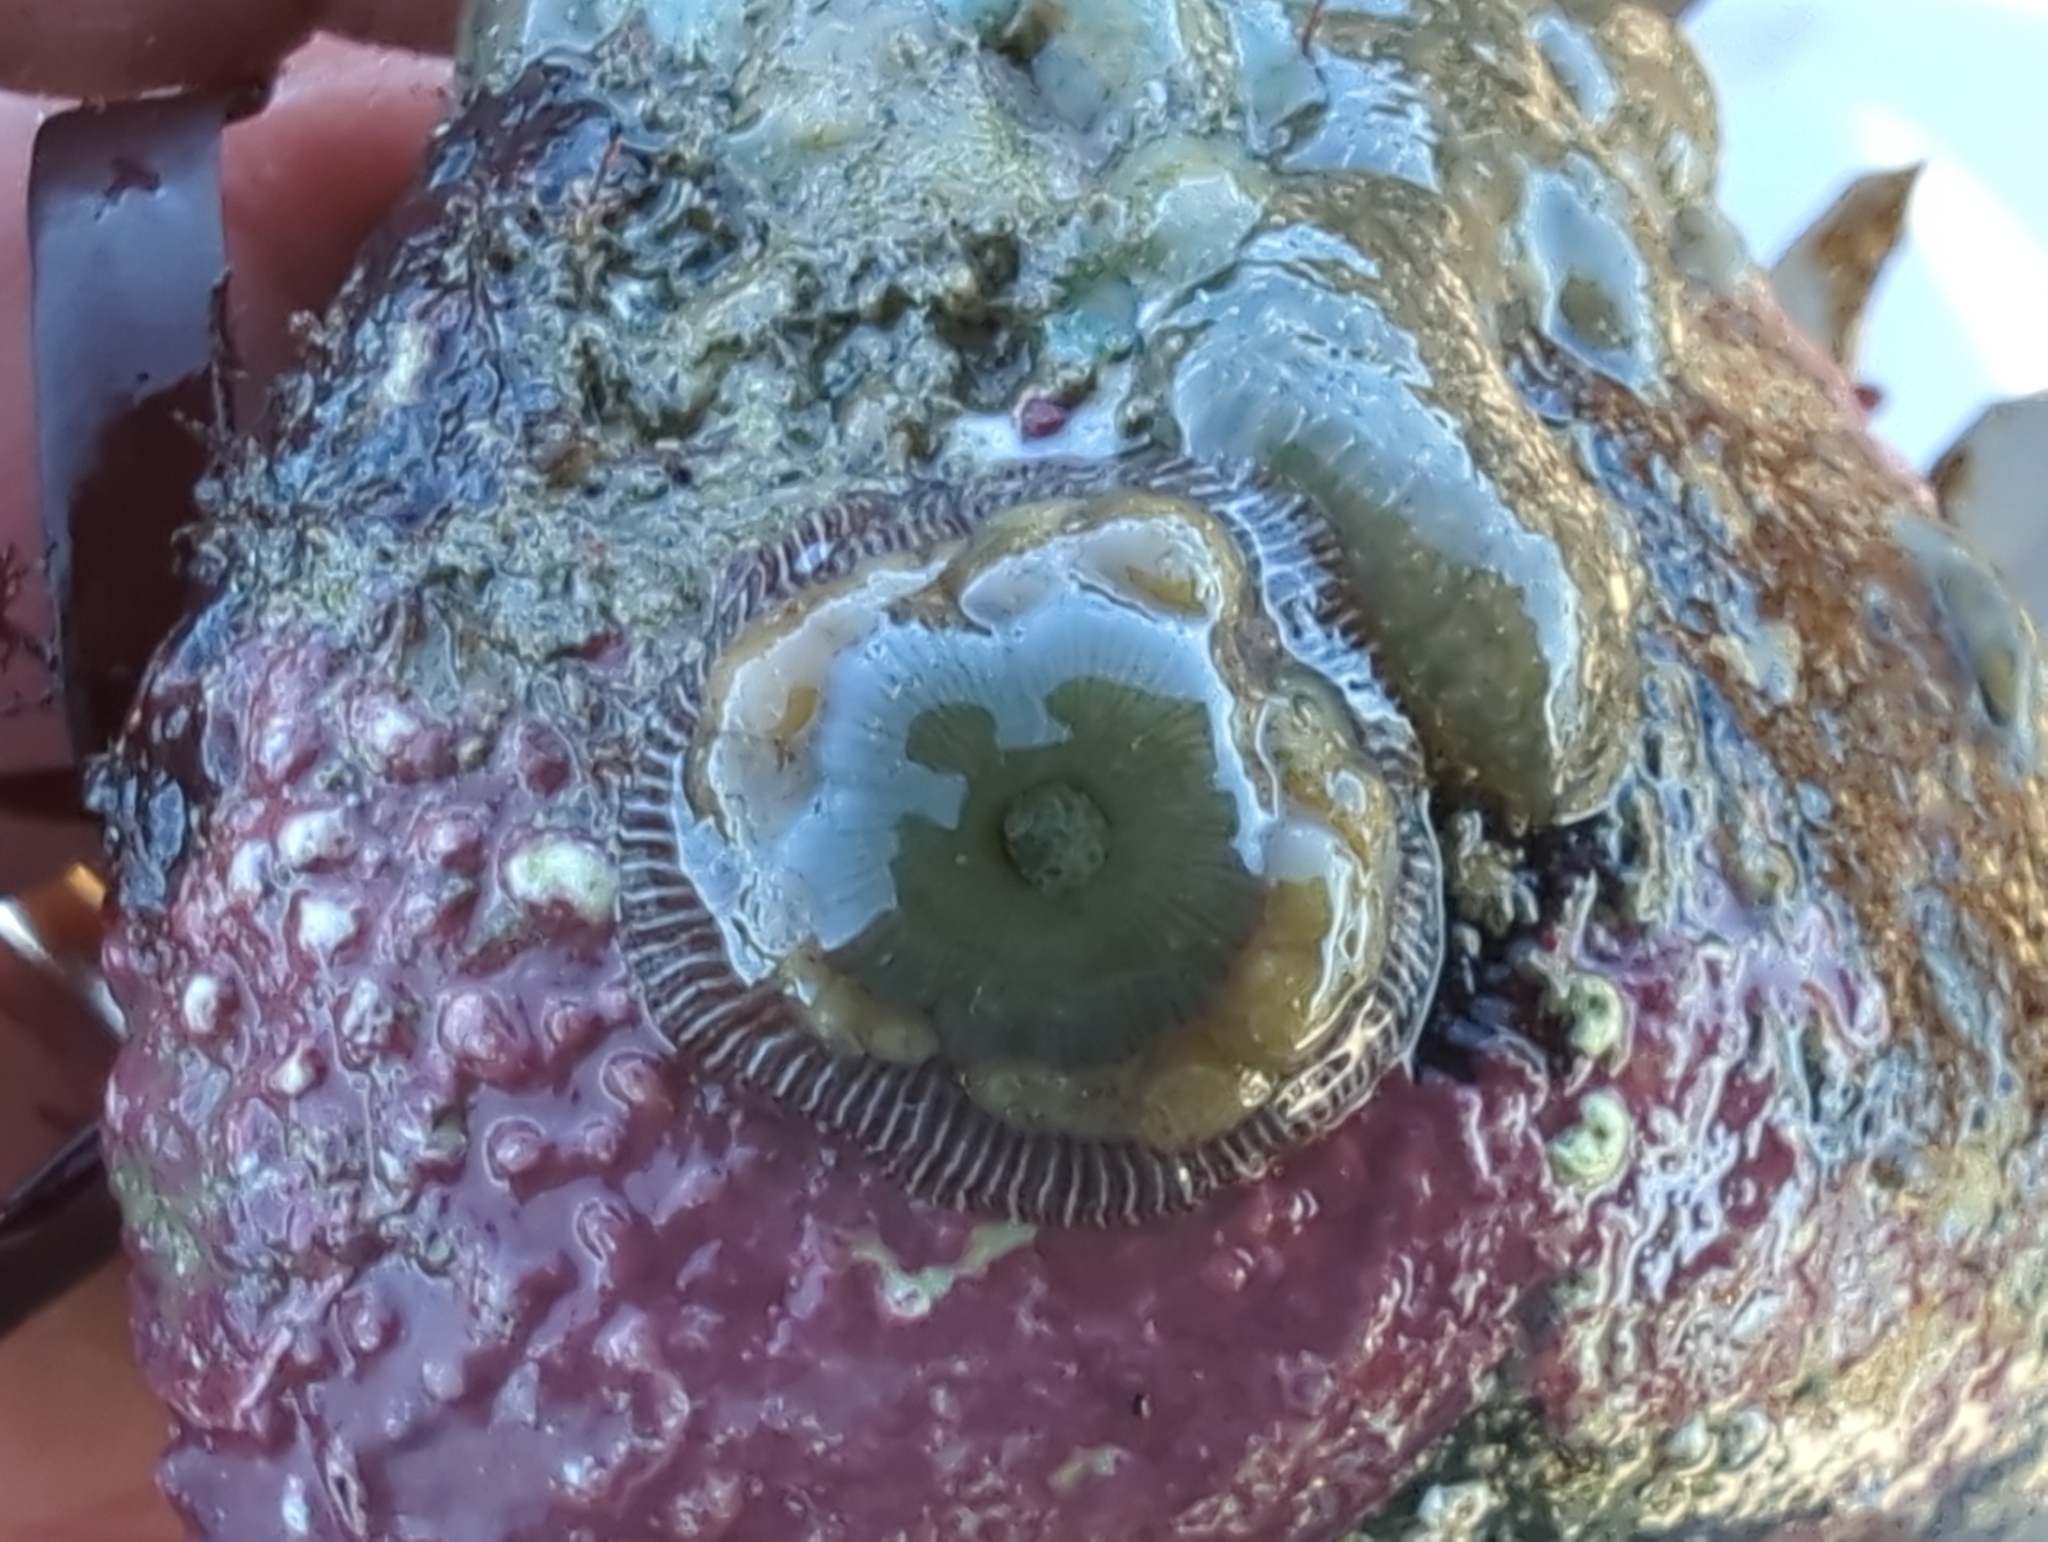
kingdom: Animalia
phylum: Cnidaria
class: Anthozoa
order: Actiniaria
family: Actiniidae
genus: Epiactis
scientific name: Epiactis prolifera
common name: Brooding anemone
